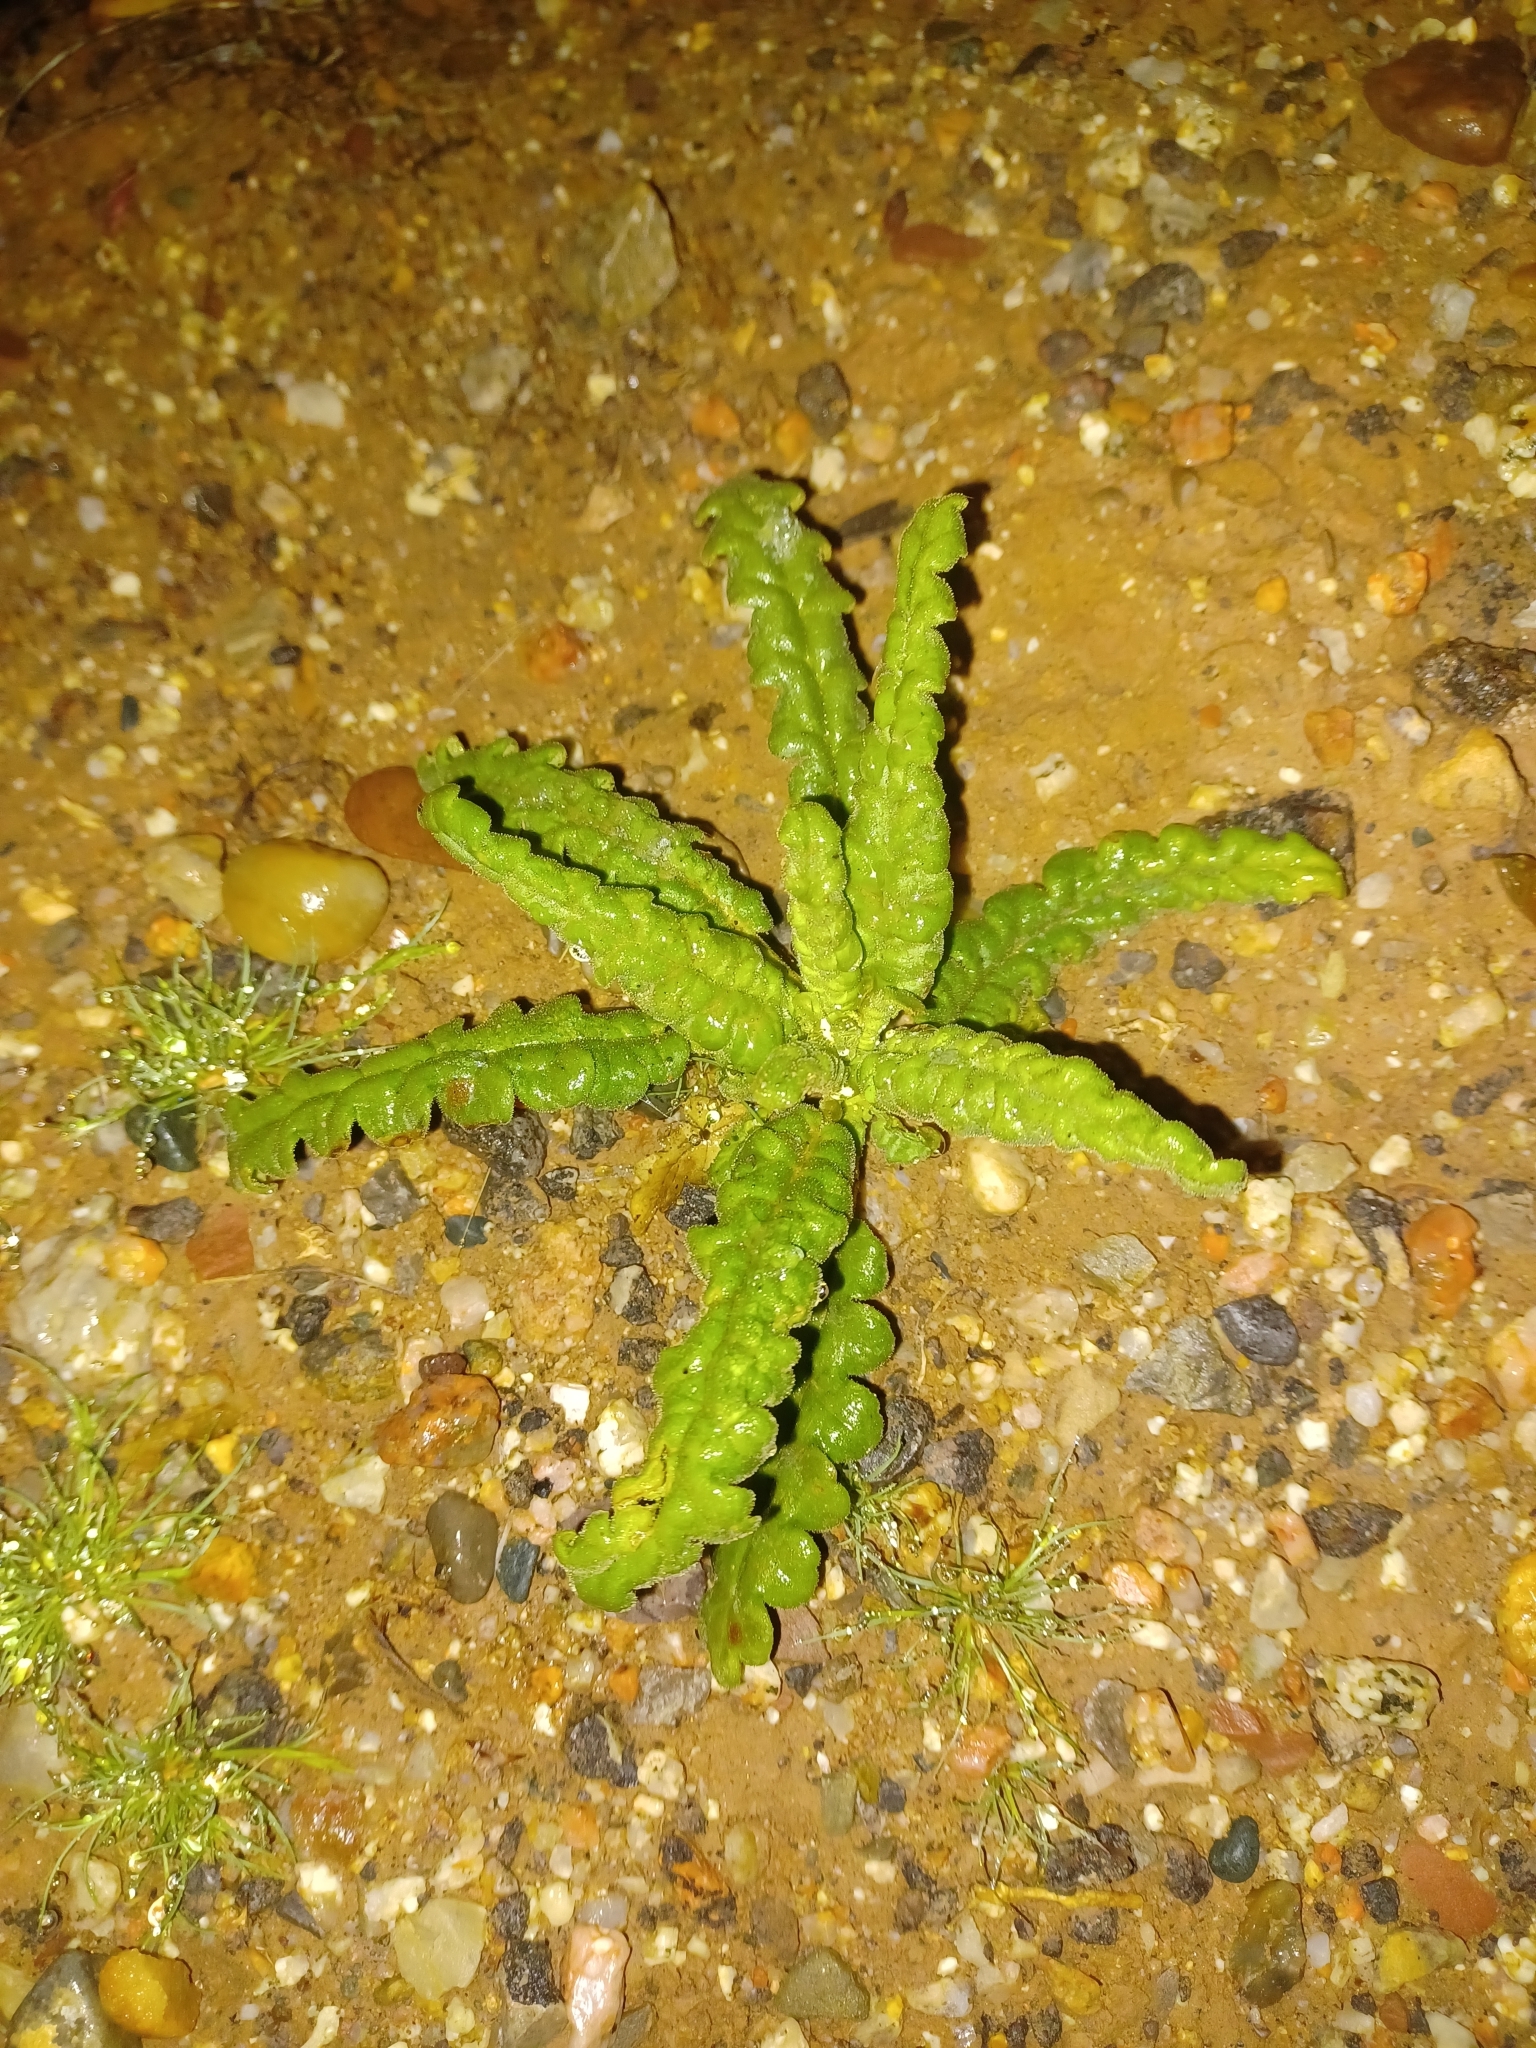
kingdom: Plantae
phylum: Tracheophyta
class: Magnoliopsida
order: Boraginales
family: Hydrophyllaceae
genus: Phacelia
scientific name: Phacelia integrifolia
